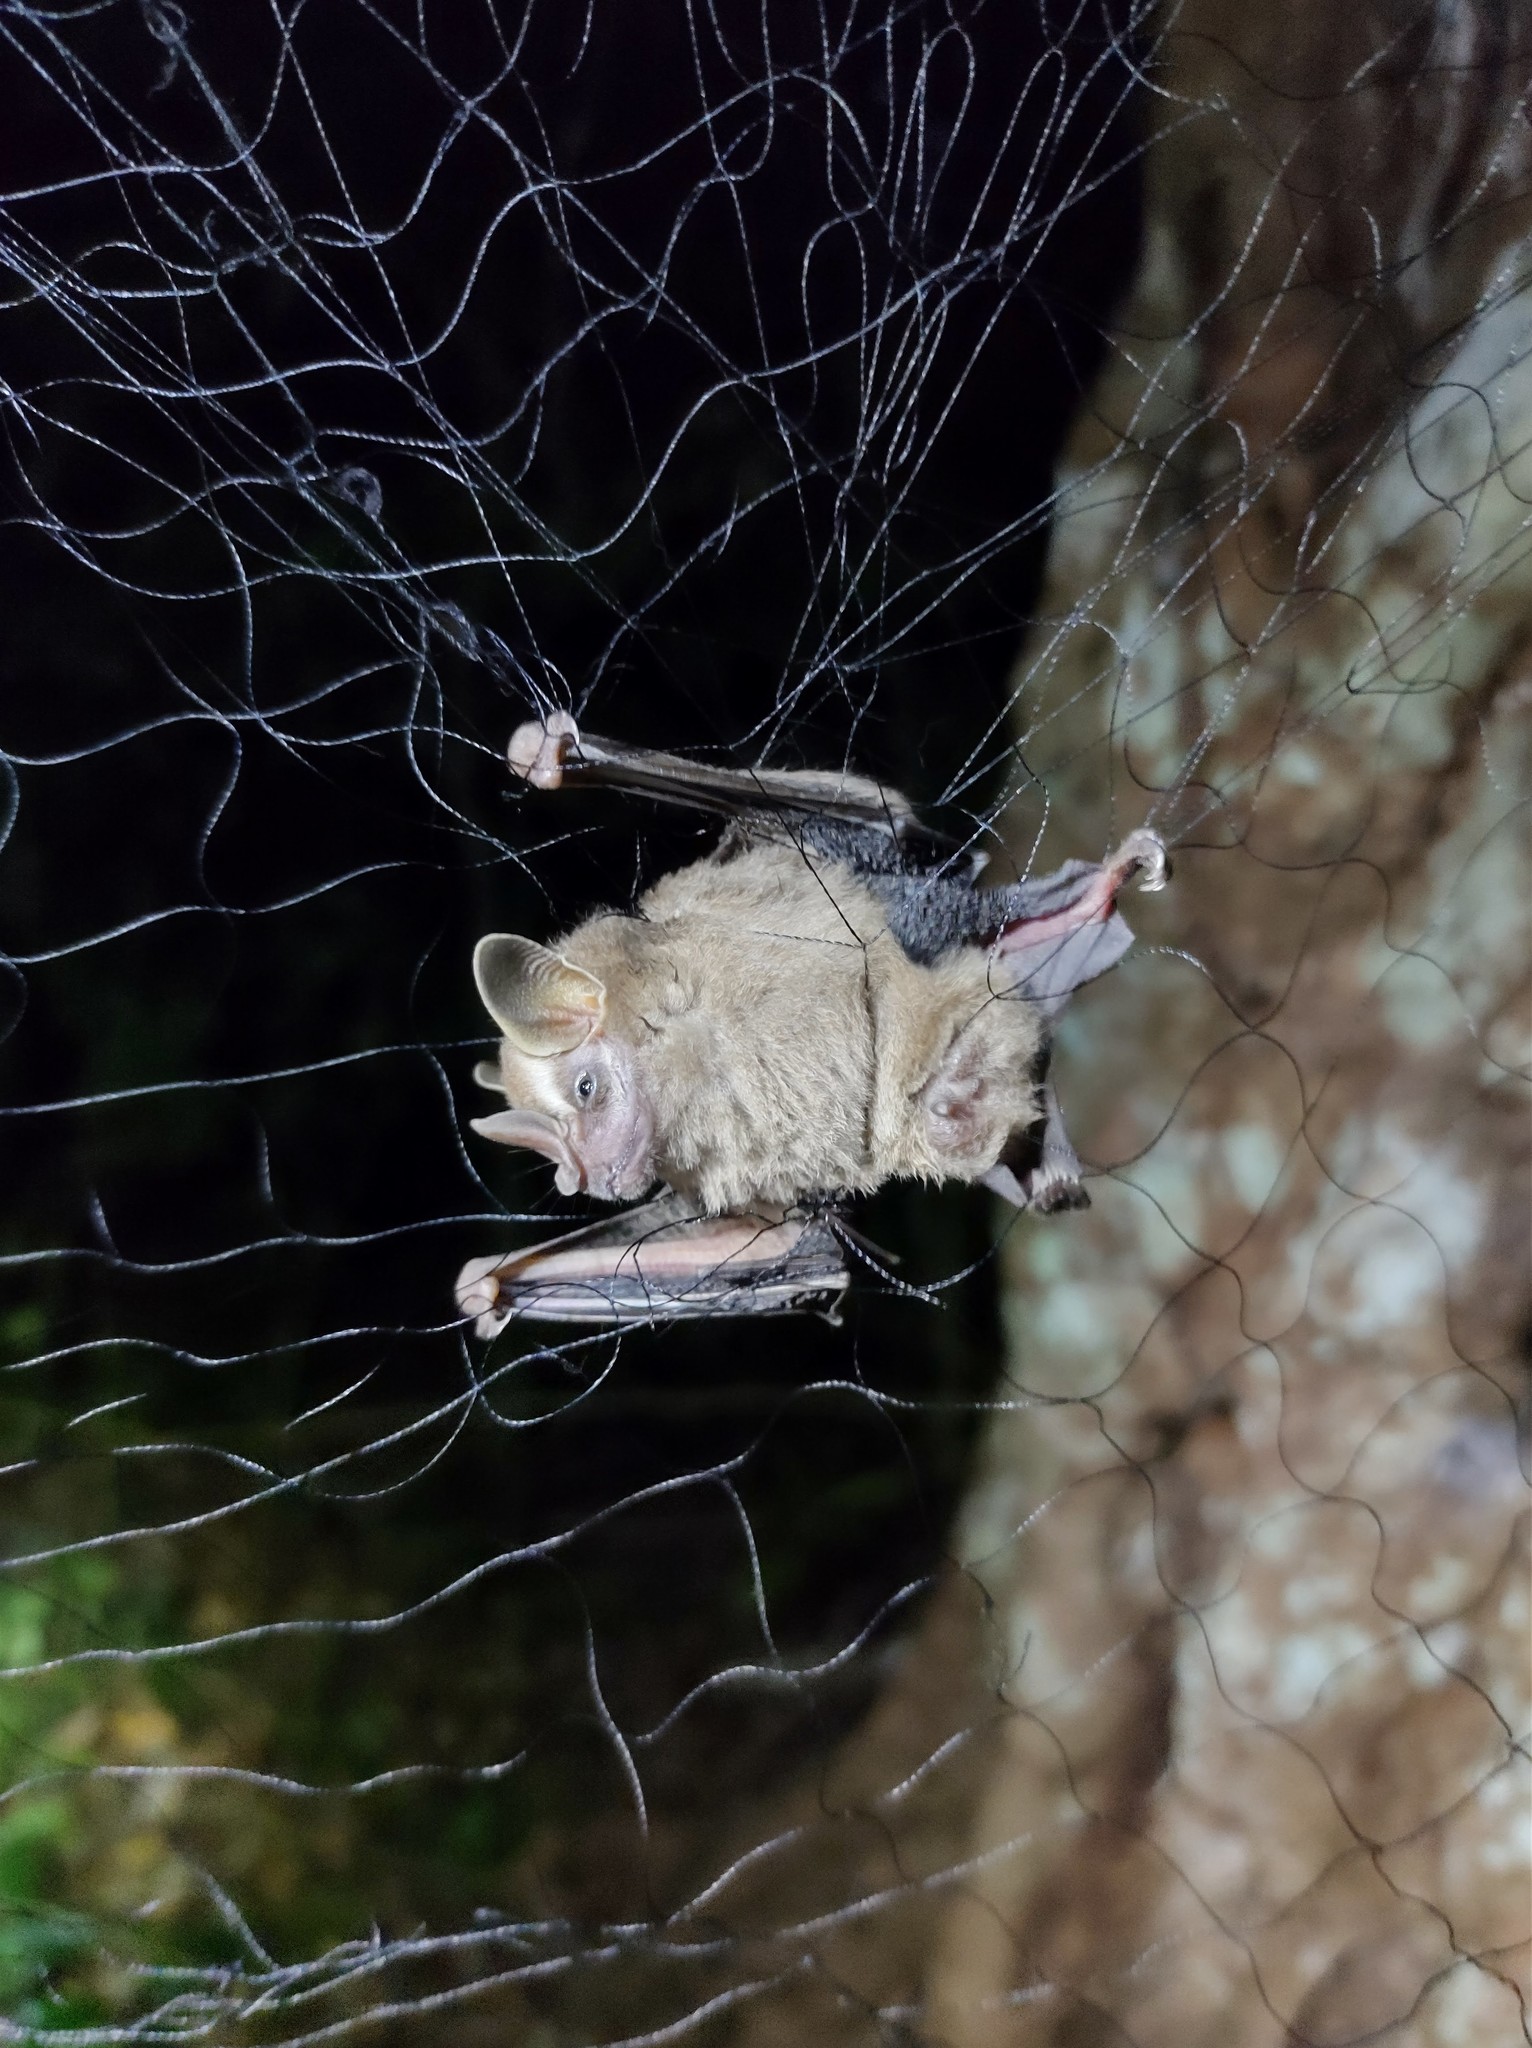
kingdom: Animalia
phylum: Chordata
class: Mammalia
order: Chiroptera
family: Phyllostomidae
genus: Artibeus
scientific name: Artibeus phaeotis
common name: Pygmy fruit-eating bat
